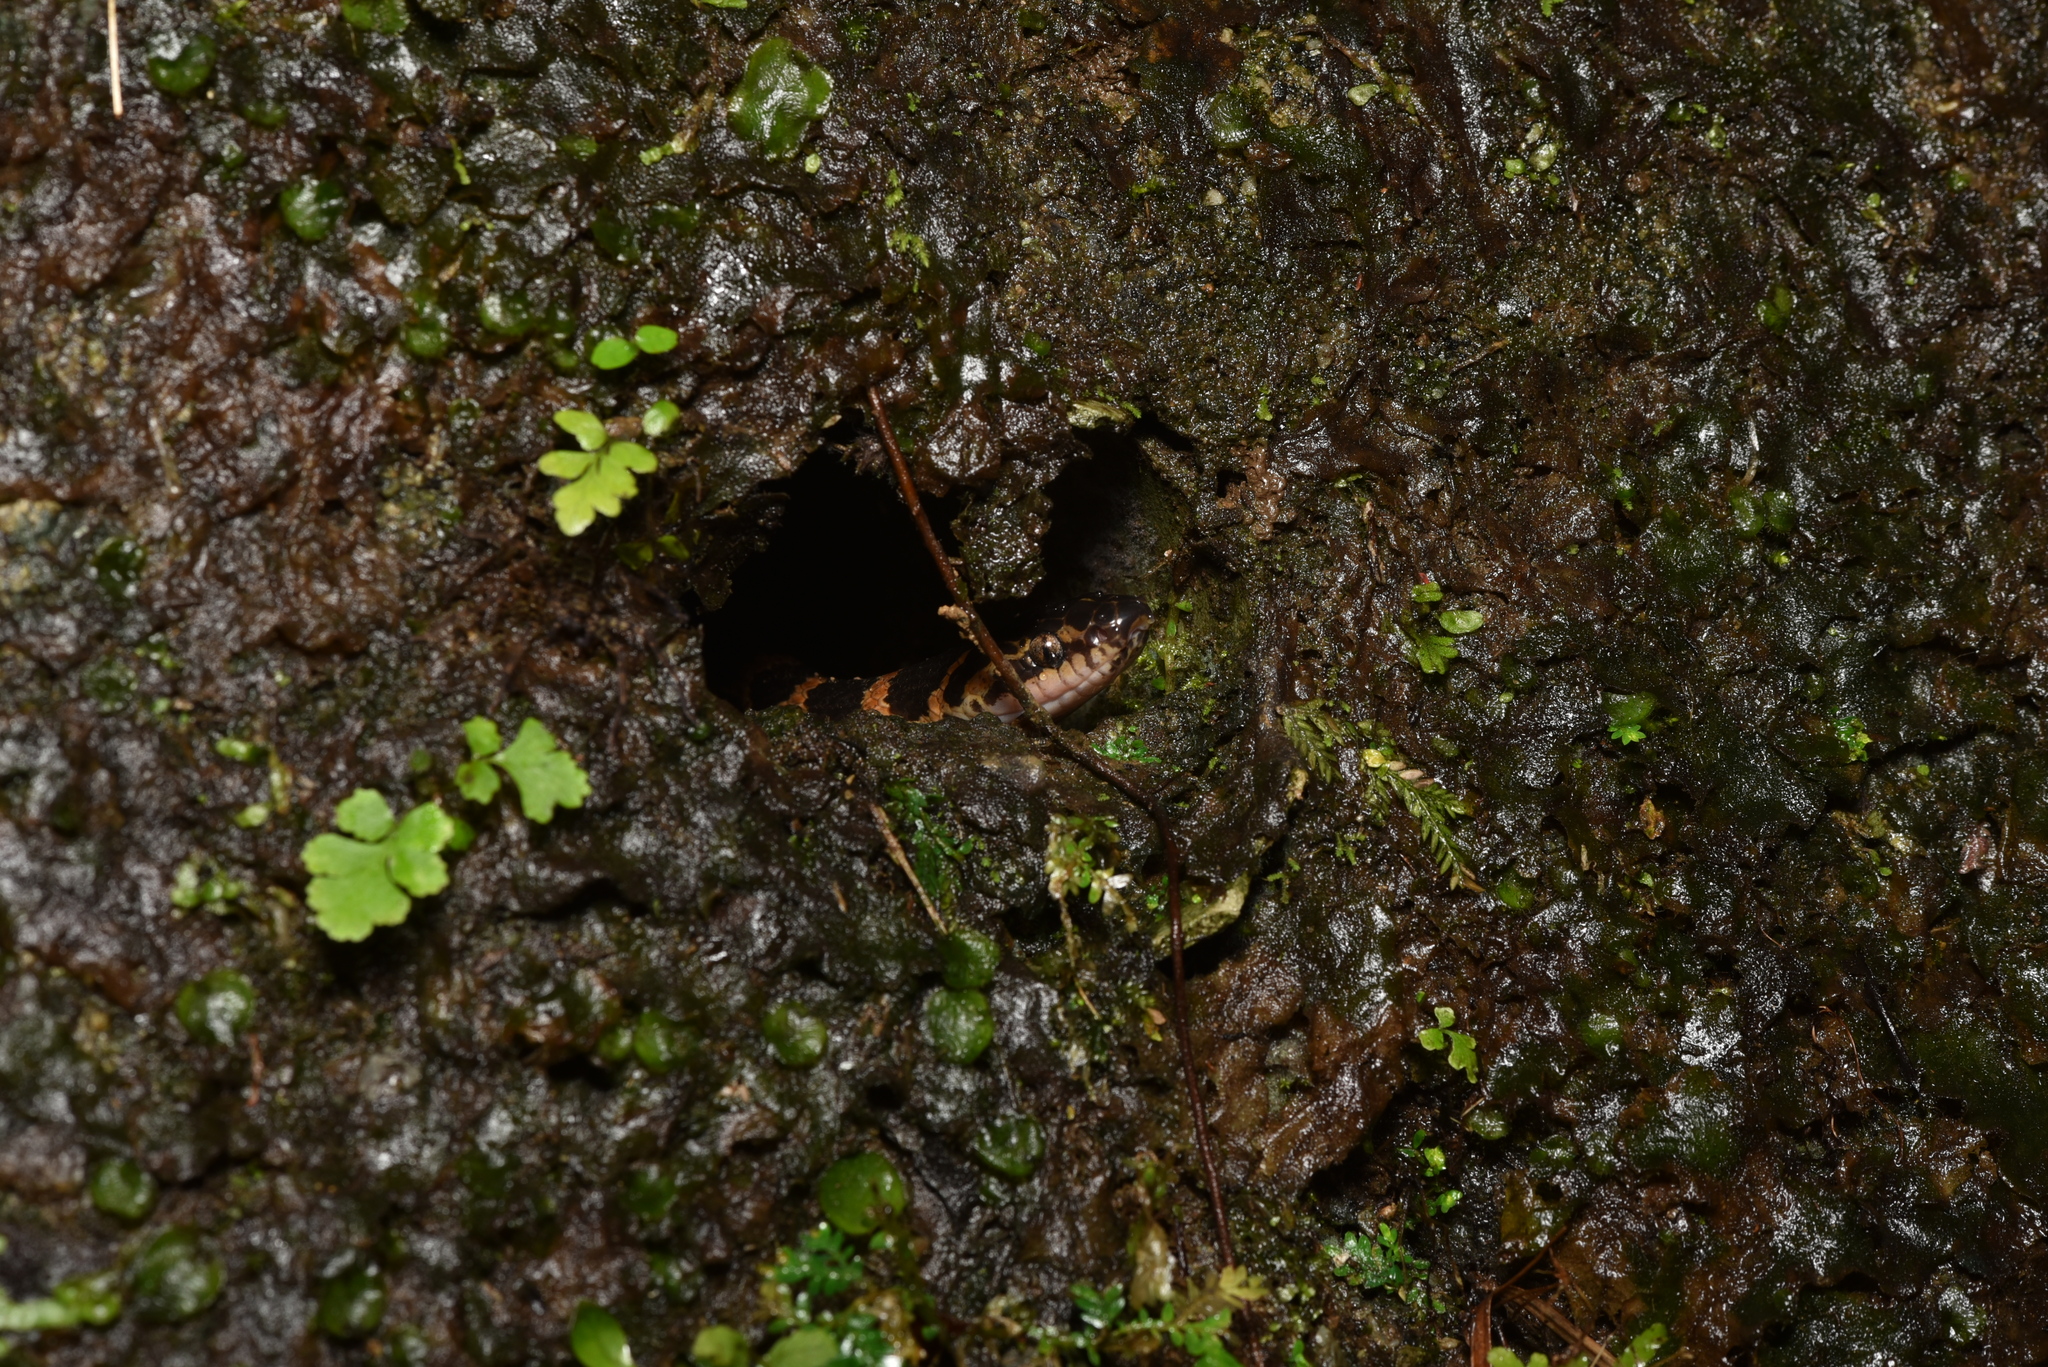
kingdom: Animalia
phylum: Chordata
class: Squamata
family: Colubridae
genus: Lycodon
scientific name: Lycodon rufozonatus
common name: Red-banded snake
